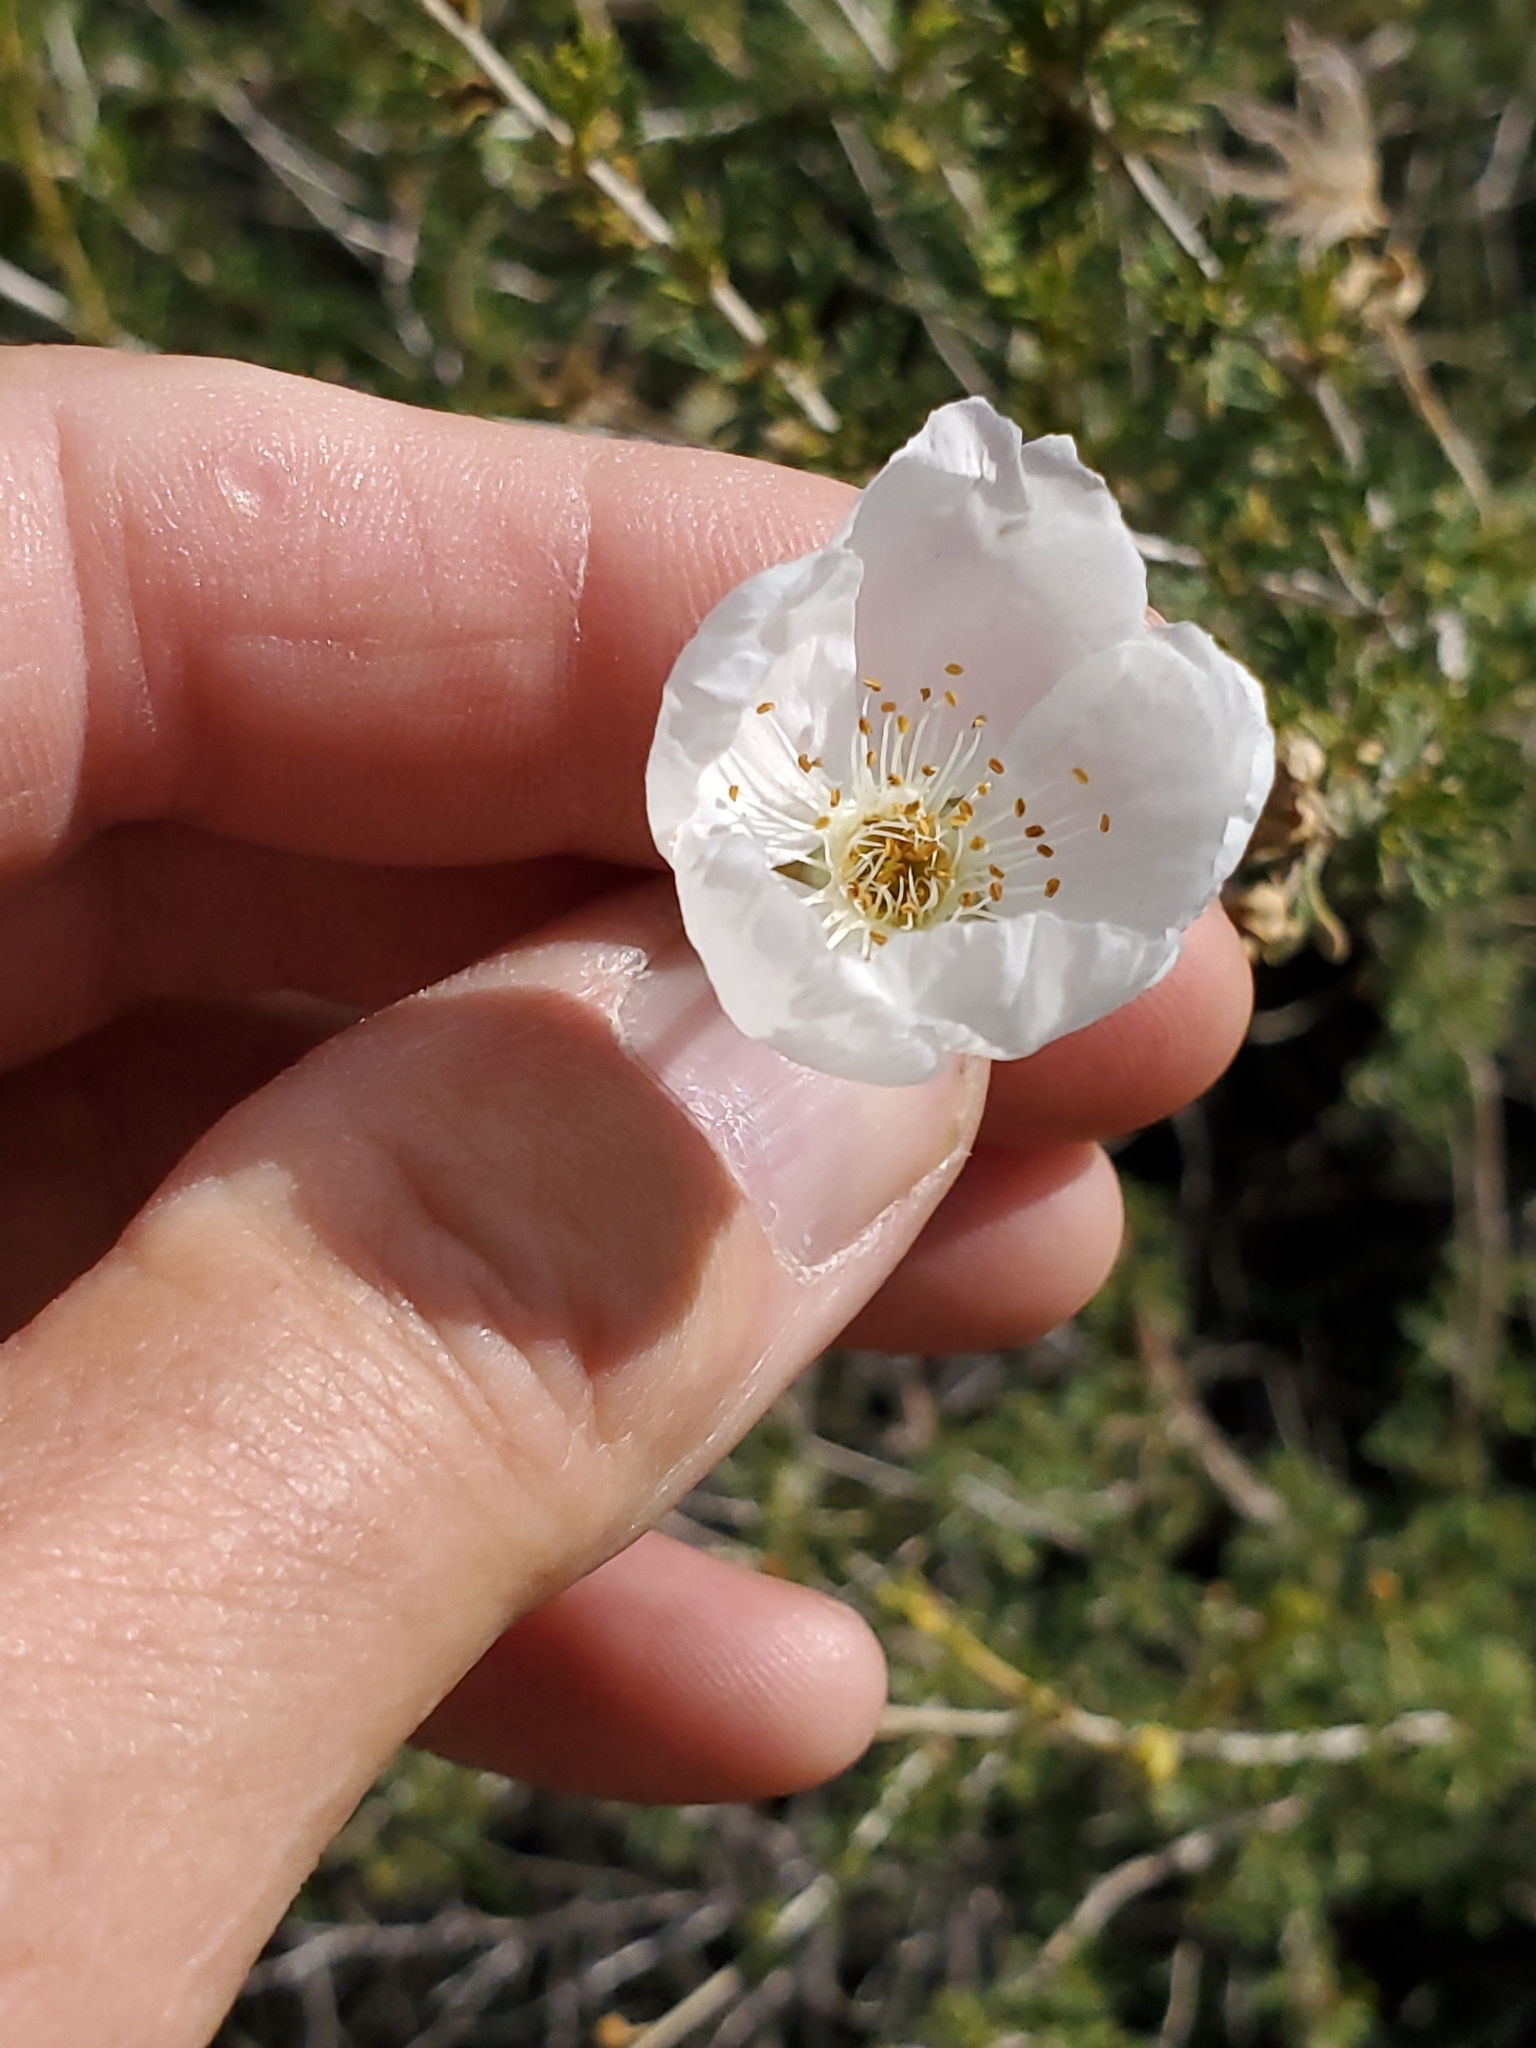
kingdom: Plantae
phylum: Tracheophyta
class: Magnoliopsida
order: Rosales
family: Rosaceae
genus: Fallugia
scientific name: Fallugia paradoxa
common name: Apache-plume
